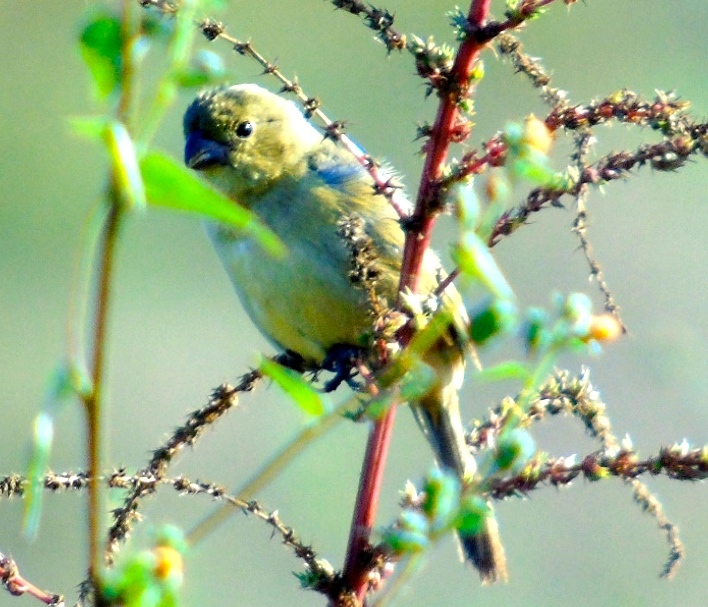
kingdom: Animalia
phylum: Chordata
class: Aves
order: Passeriformes
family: Thraupidae
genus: Sporophila
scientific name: Sporophila torqueola
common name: White-collared seedeater
